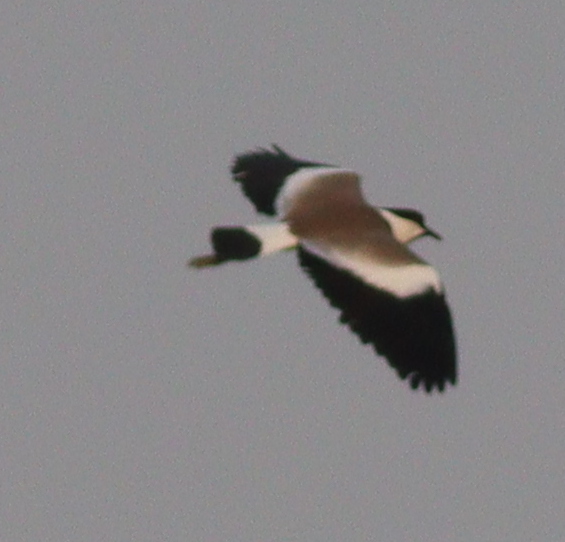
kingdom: Animalia
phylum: Chordata
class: Aves
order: Charadriiformes
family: Charadriidae
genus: Vanellus
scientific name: Vanellus spinosus
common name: Spur-winged lapwing
